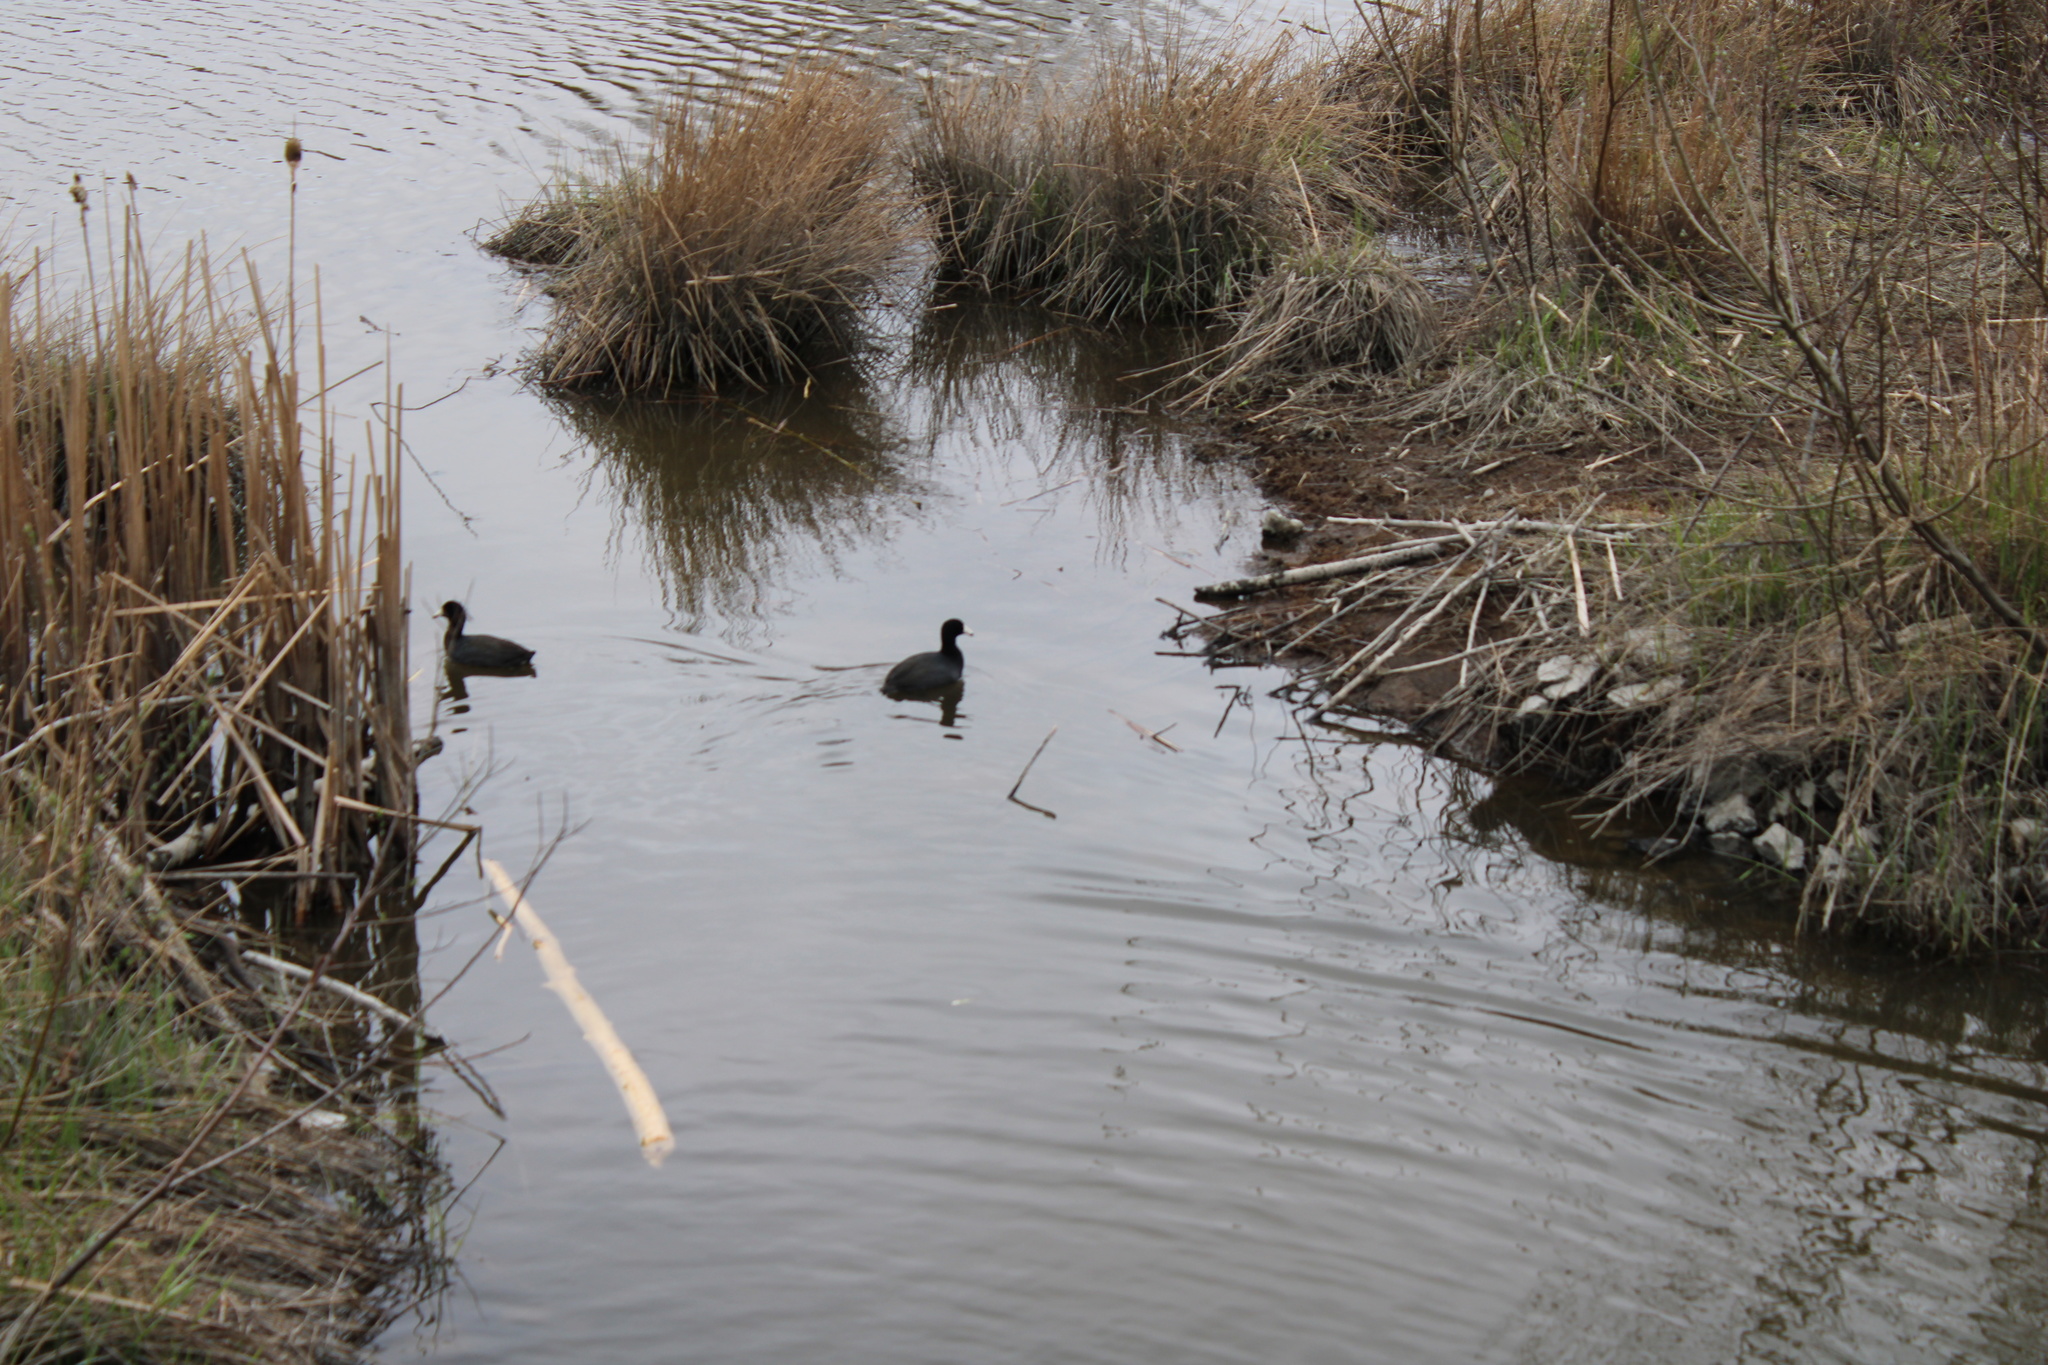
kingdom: Animalia
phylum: Chordata
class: Aves
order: Gruiformes
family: Rallidae
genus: Fulica
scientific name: Fulica americana
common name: American coot
